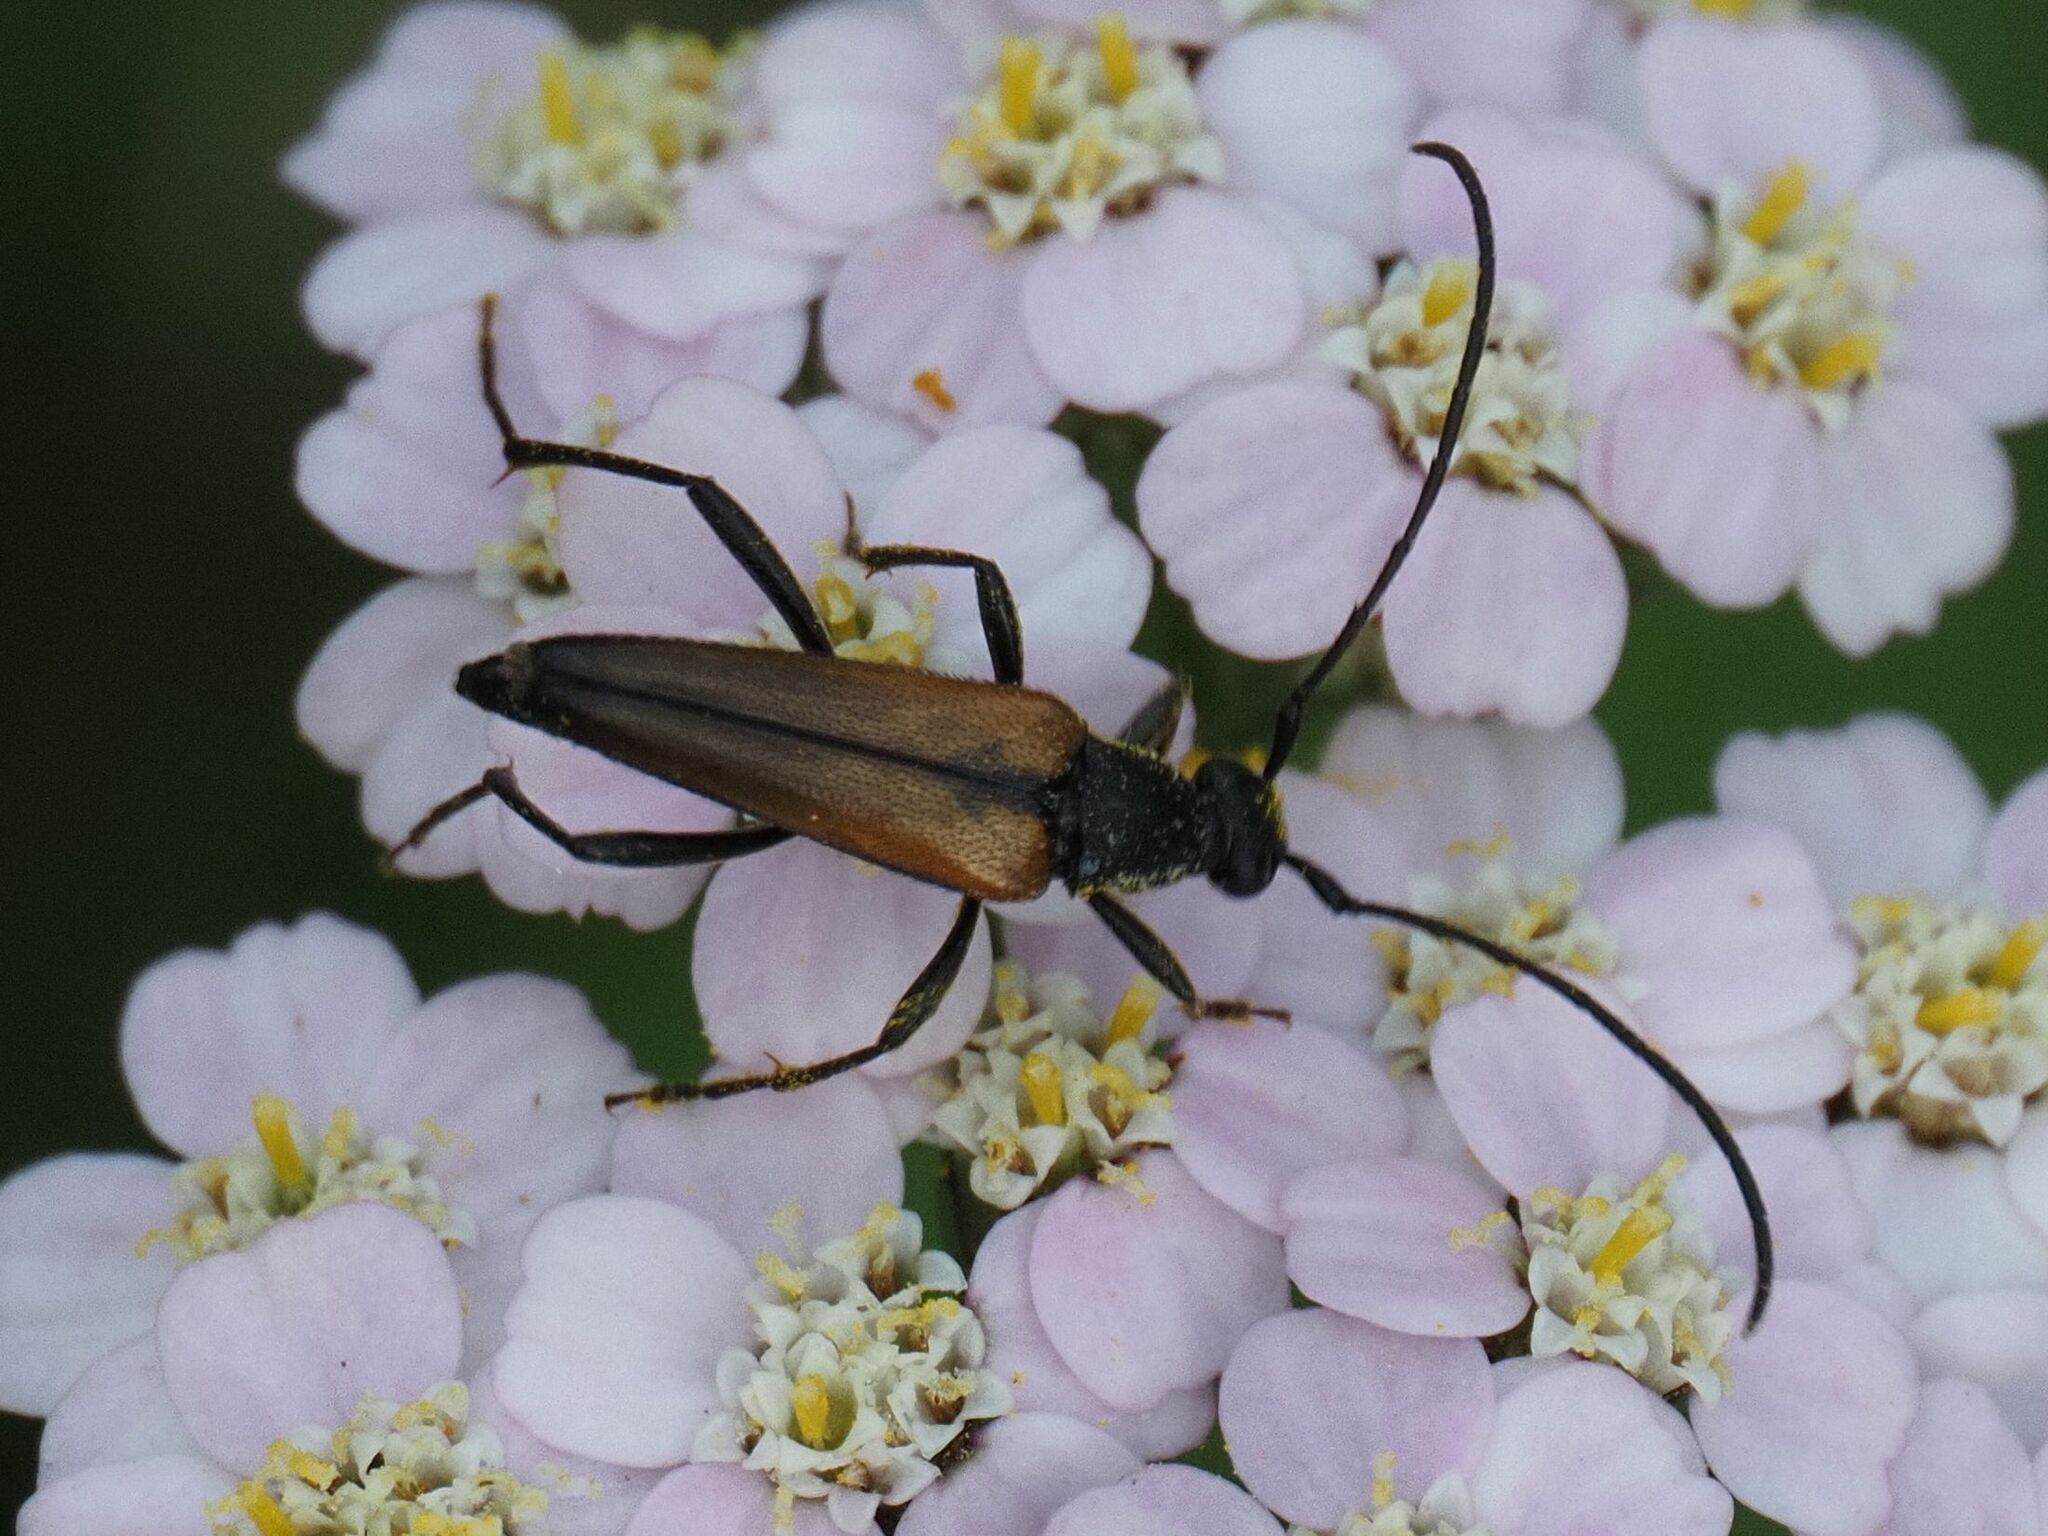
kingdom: Animalia
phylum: Arthropoda
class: Insecta
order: Coleoptera
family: Cerambycidae
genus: Stenurella
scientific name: Stenurella melanura
